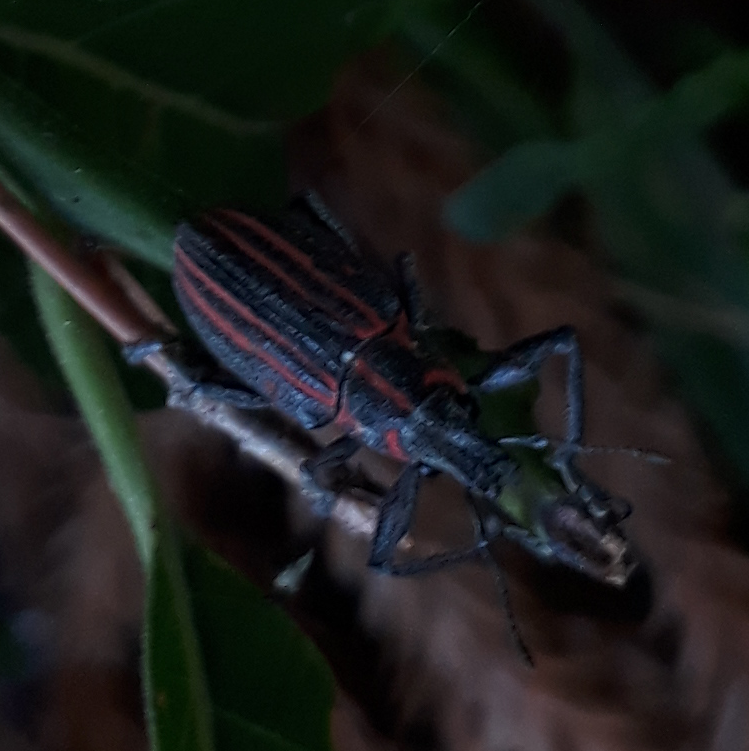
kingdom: Animalia
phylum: Arthropoda
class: Insecta
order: Coleoptera
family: Curculionidae
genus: Naupactus
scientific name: Naupactus rivulosus
